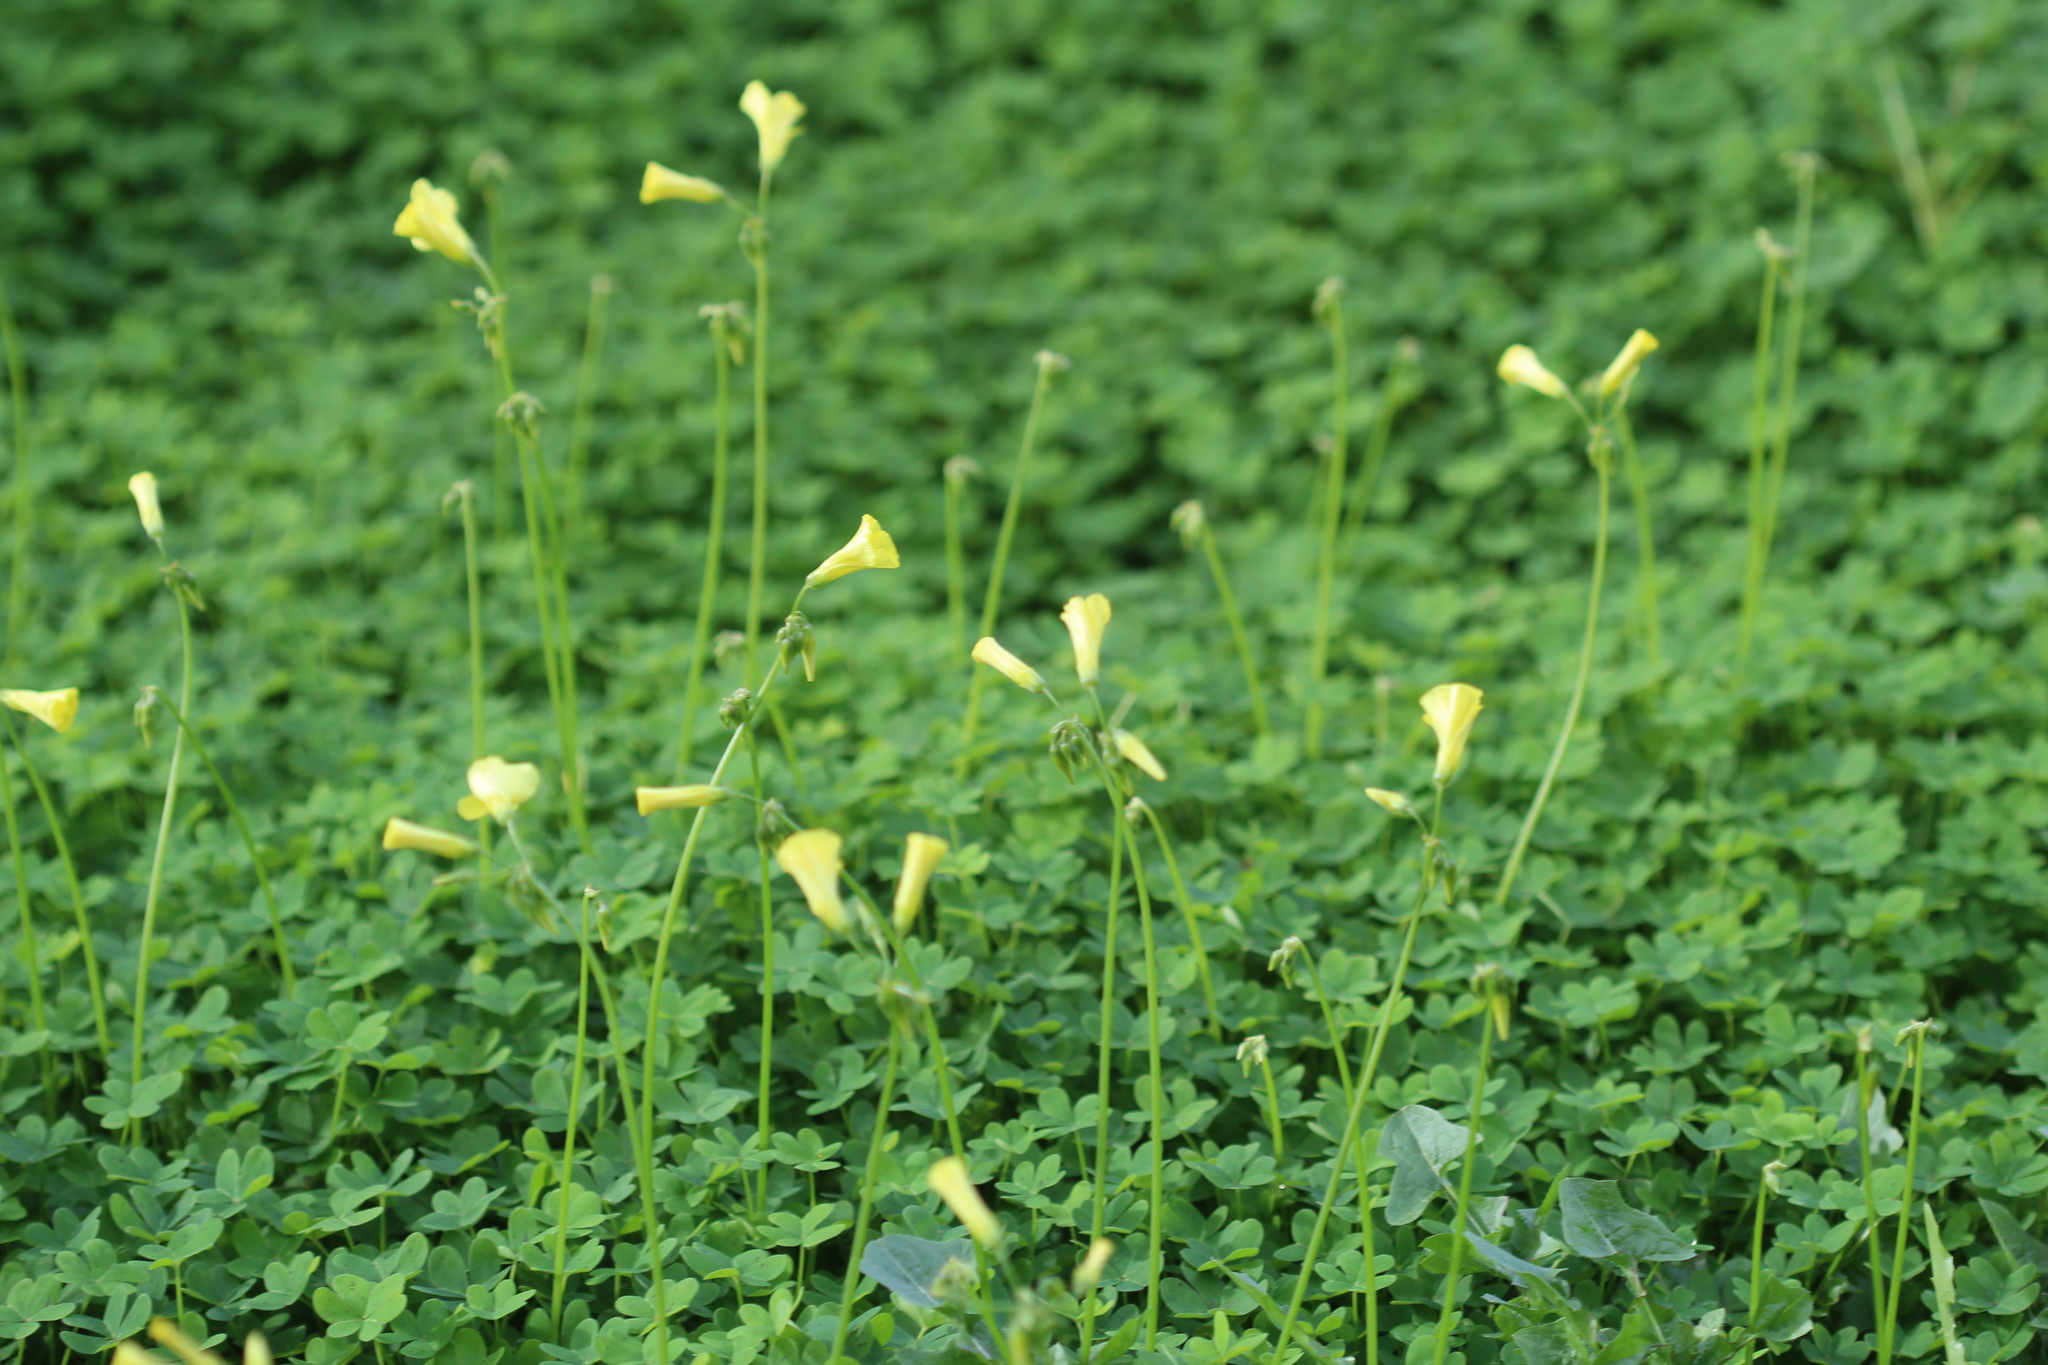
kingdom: Plantae
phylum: Tracheophyta
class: Magnoliopsida
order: Oxalidales
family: Oxalidaceae
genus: Oxalis
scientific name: Oxalis pes-caprae
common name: Bermuda-buttercup
